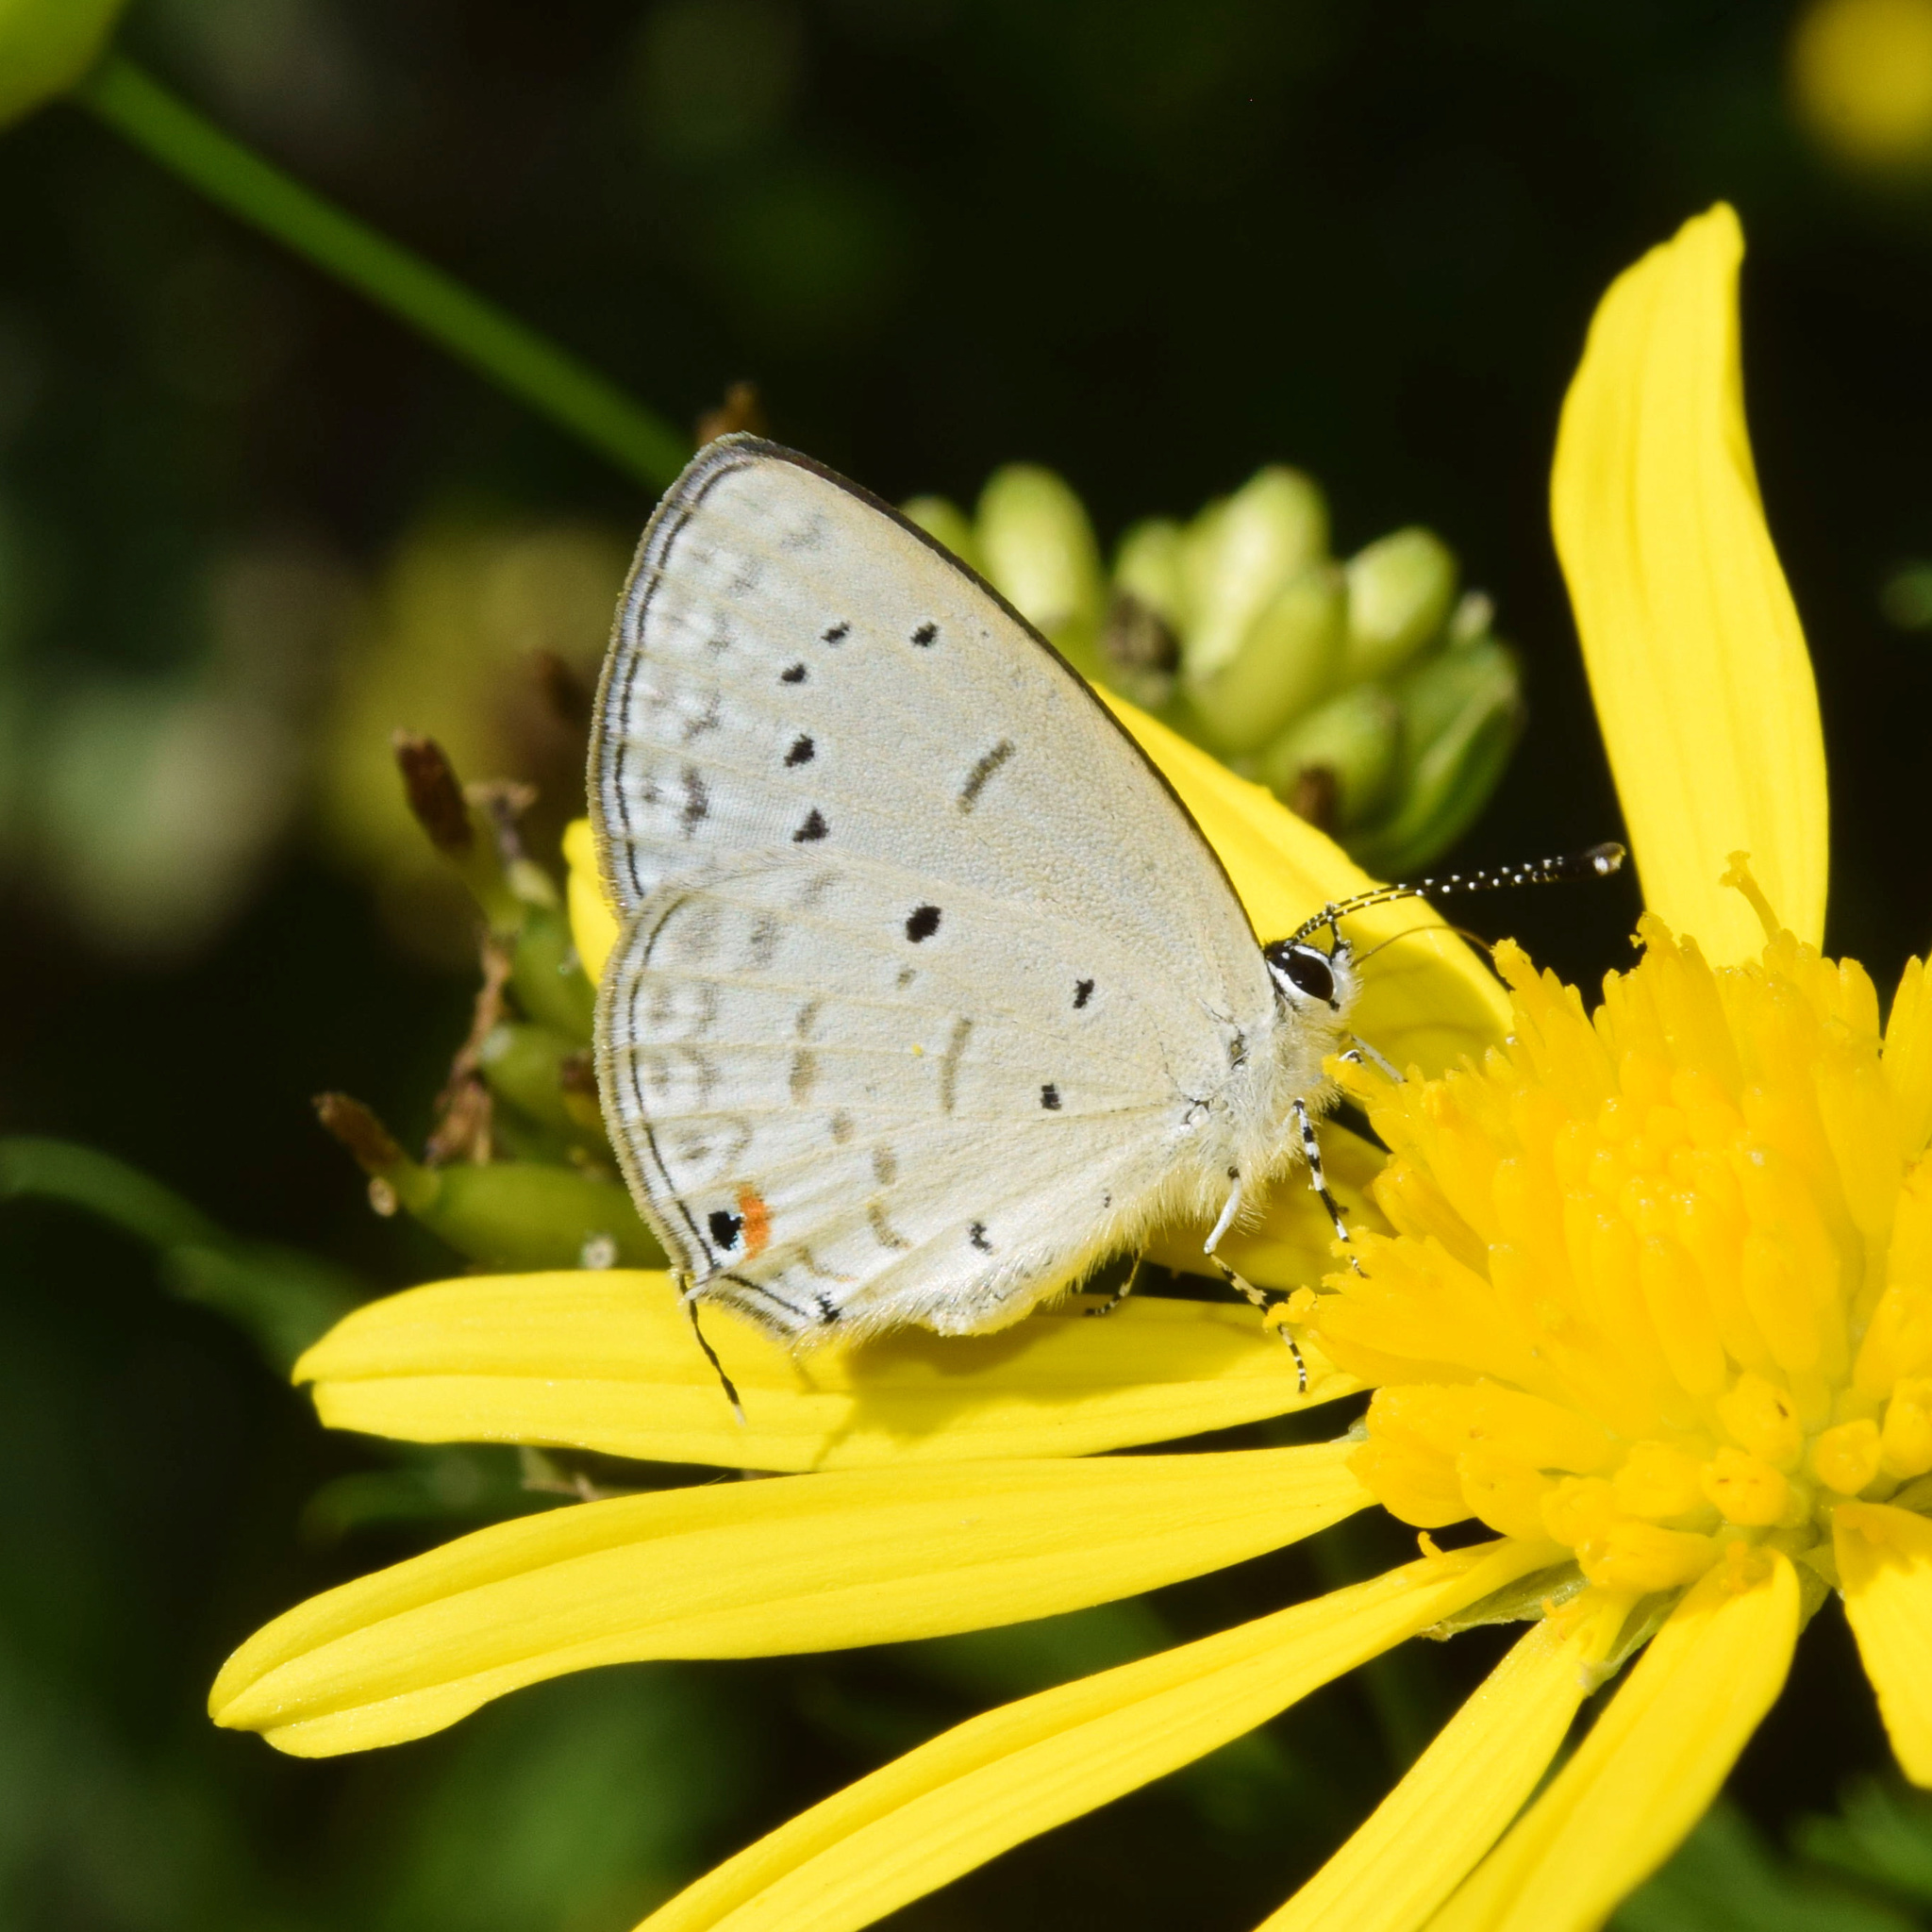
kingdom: Animalia
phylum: Arthropoda
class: Insecta
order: Lepidoptera
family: Lycaenidae
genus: Eicochrysops
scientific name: Eicochrysops hippocrates
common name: White-tipped blue
